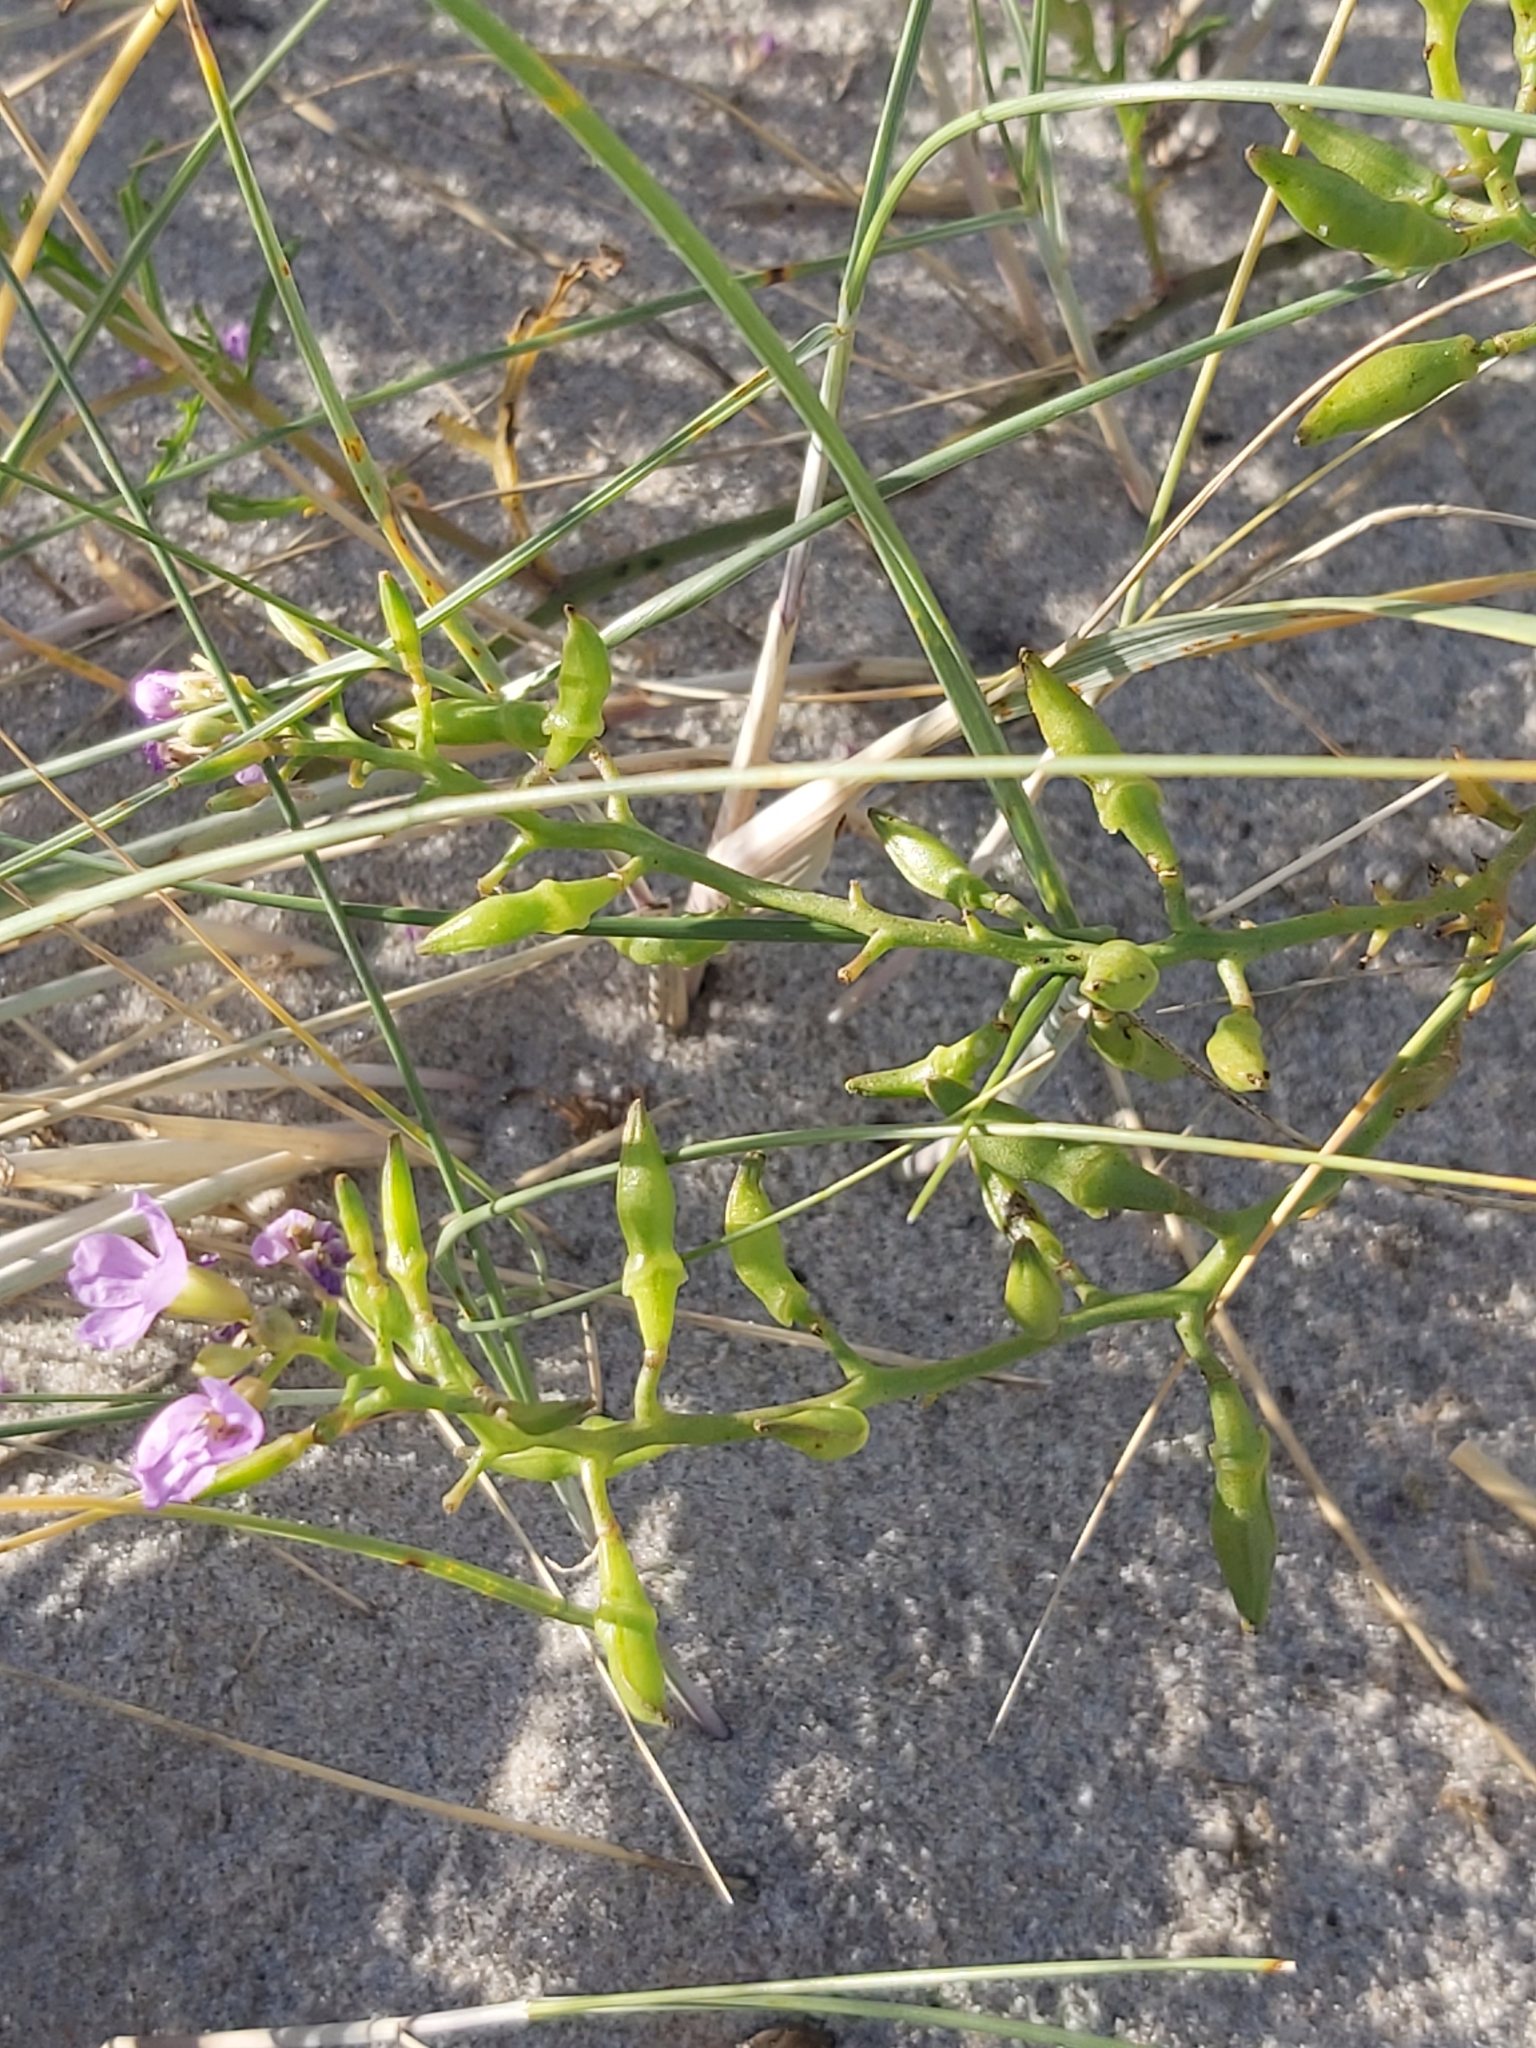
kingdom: Plantae
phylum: Tracheophyta
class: Magnoliopsida
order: Brassicales
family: Brassicaceae
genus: Cakile
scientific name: Cakile maritima
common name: Sea rocket
